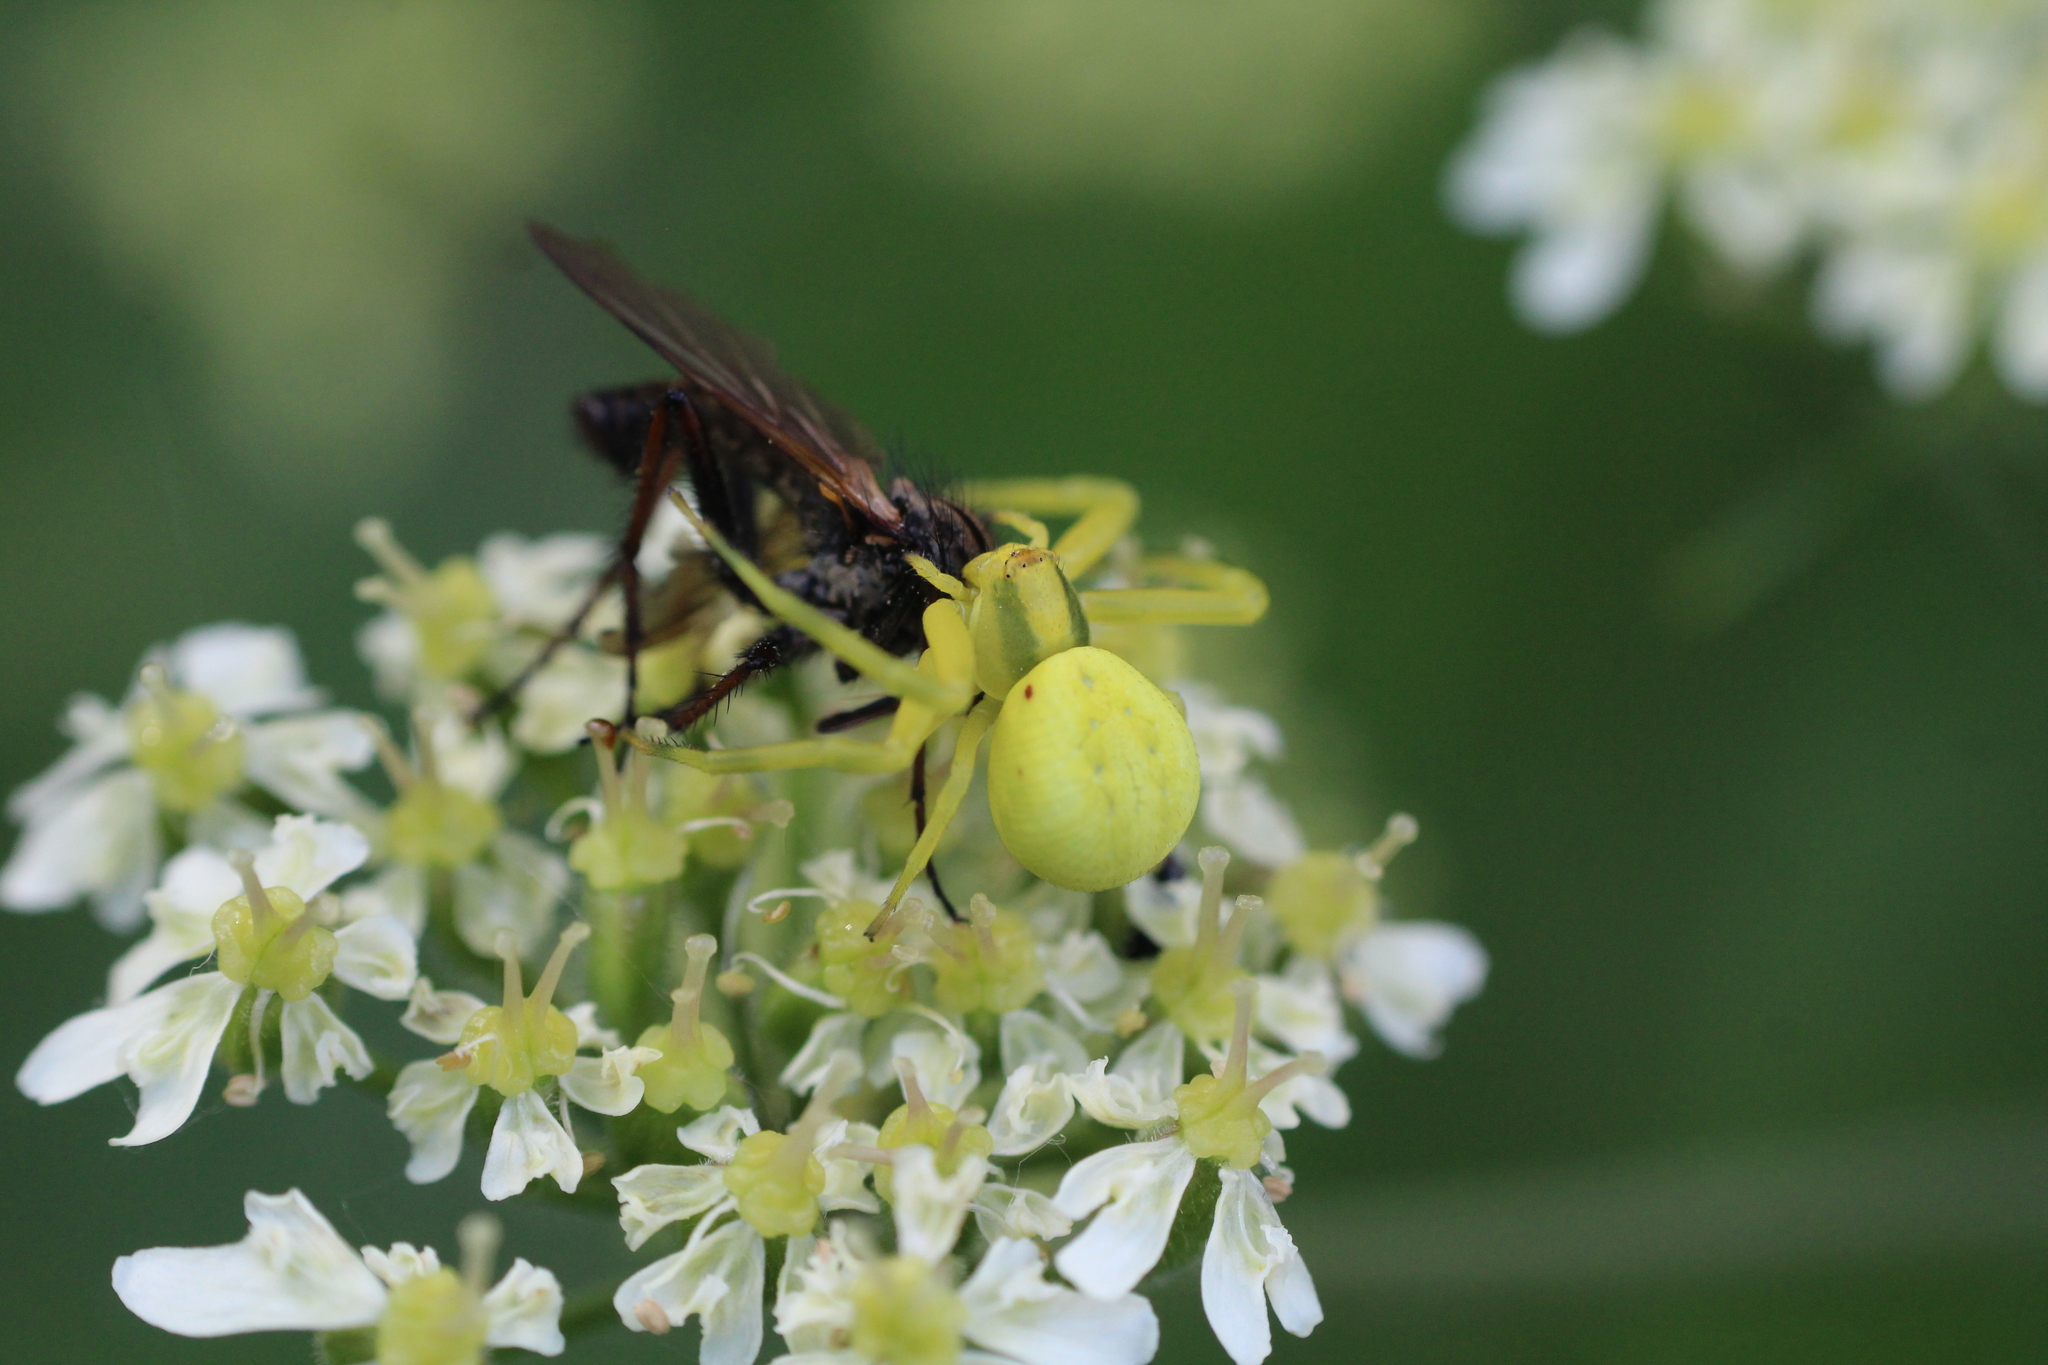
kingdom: Animalia
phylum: Arthropoda
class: Arachnida
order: Araneae
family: Thomisidae
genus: Misumena
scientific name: Misumena vatia
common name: Goldenrod crab spider
